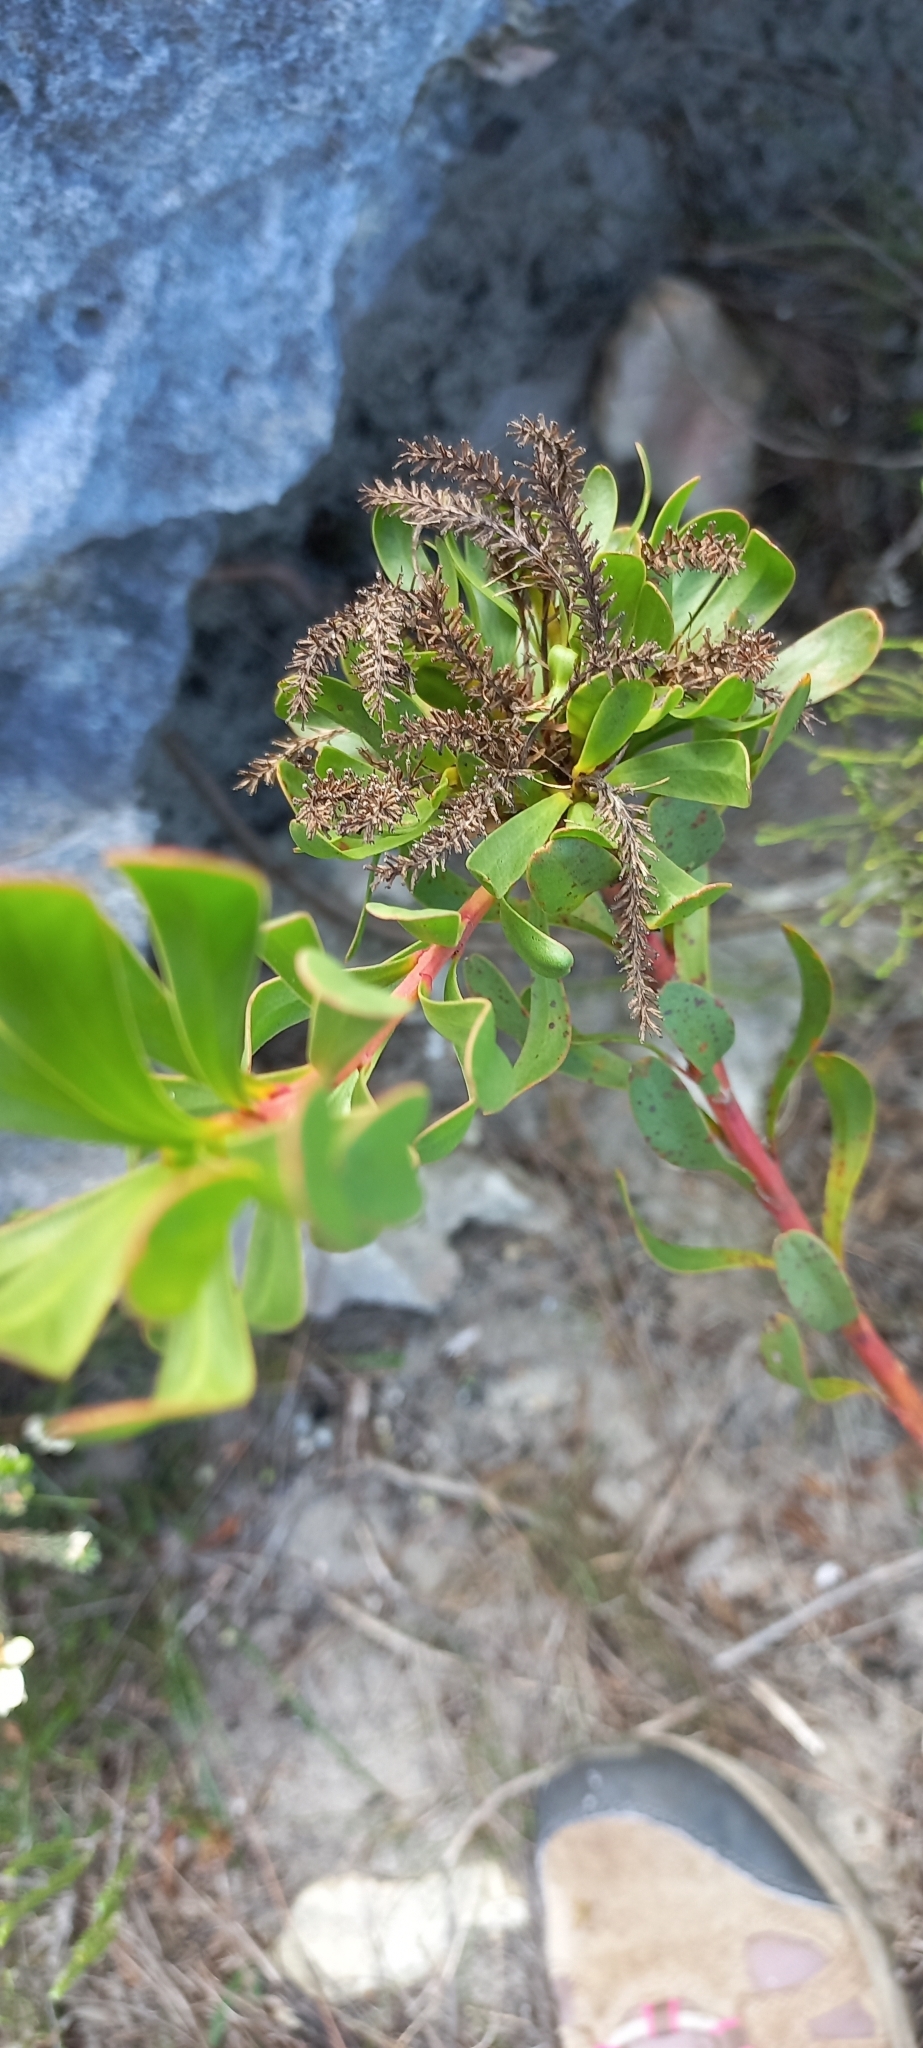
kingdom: Plantae
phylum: Tracheophyta
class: Magnoliopsida
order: Proteales
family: Proteaceae
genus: Aulax
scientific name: Aulax umbellata
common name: Broad-leaf featherbush
